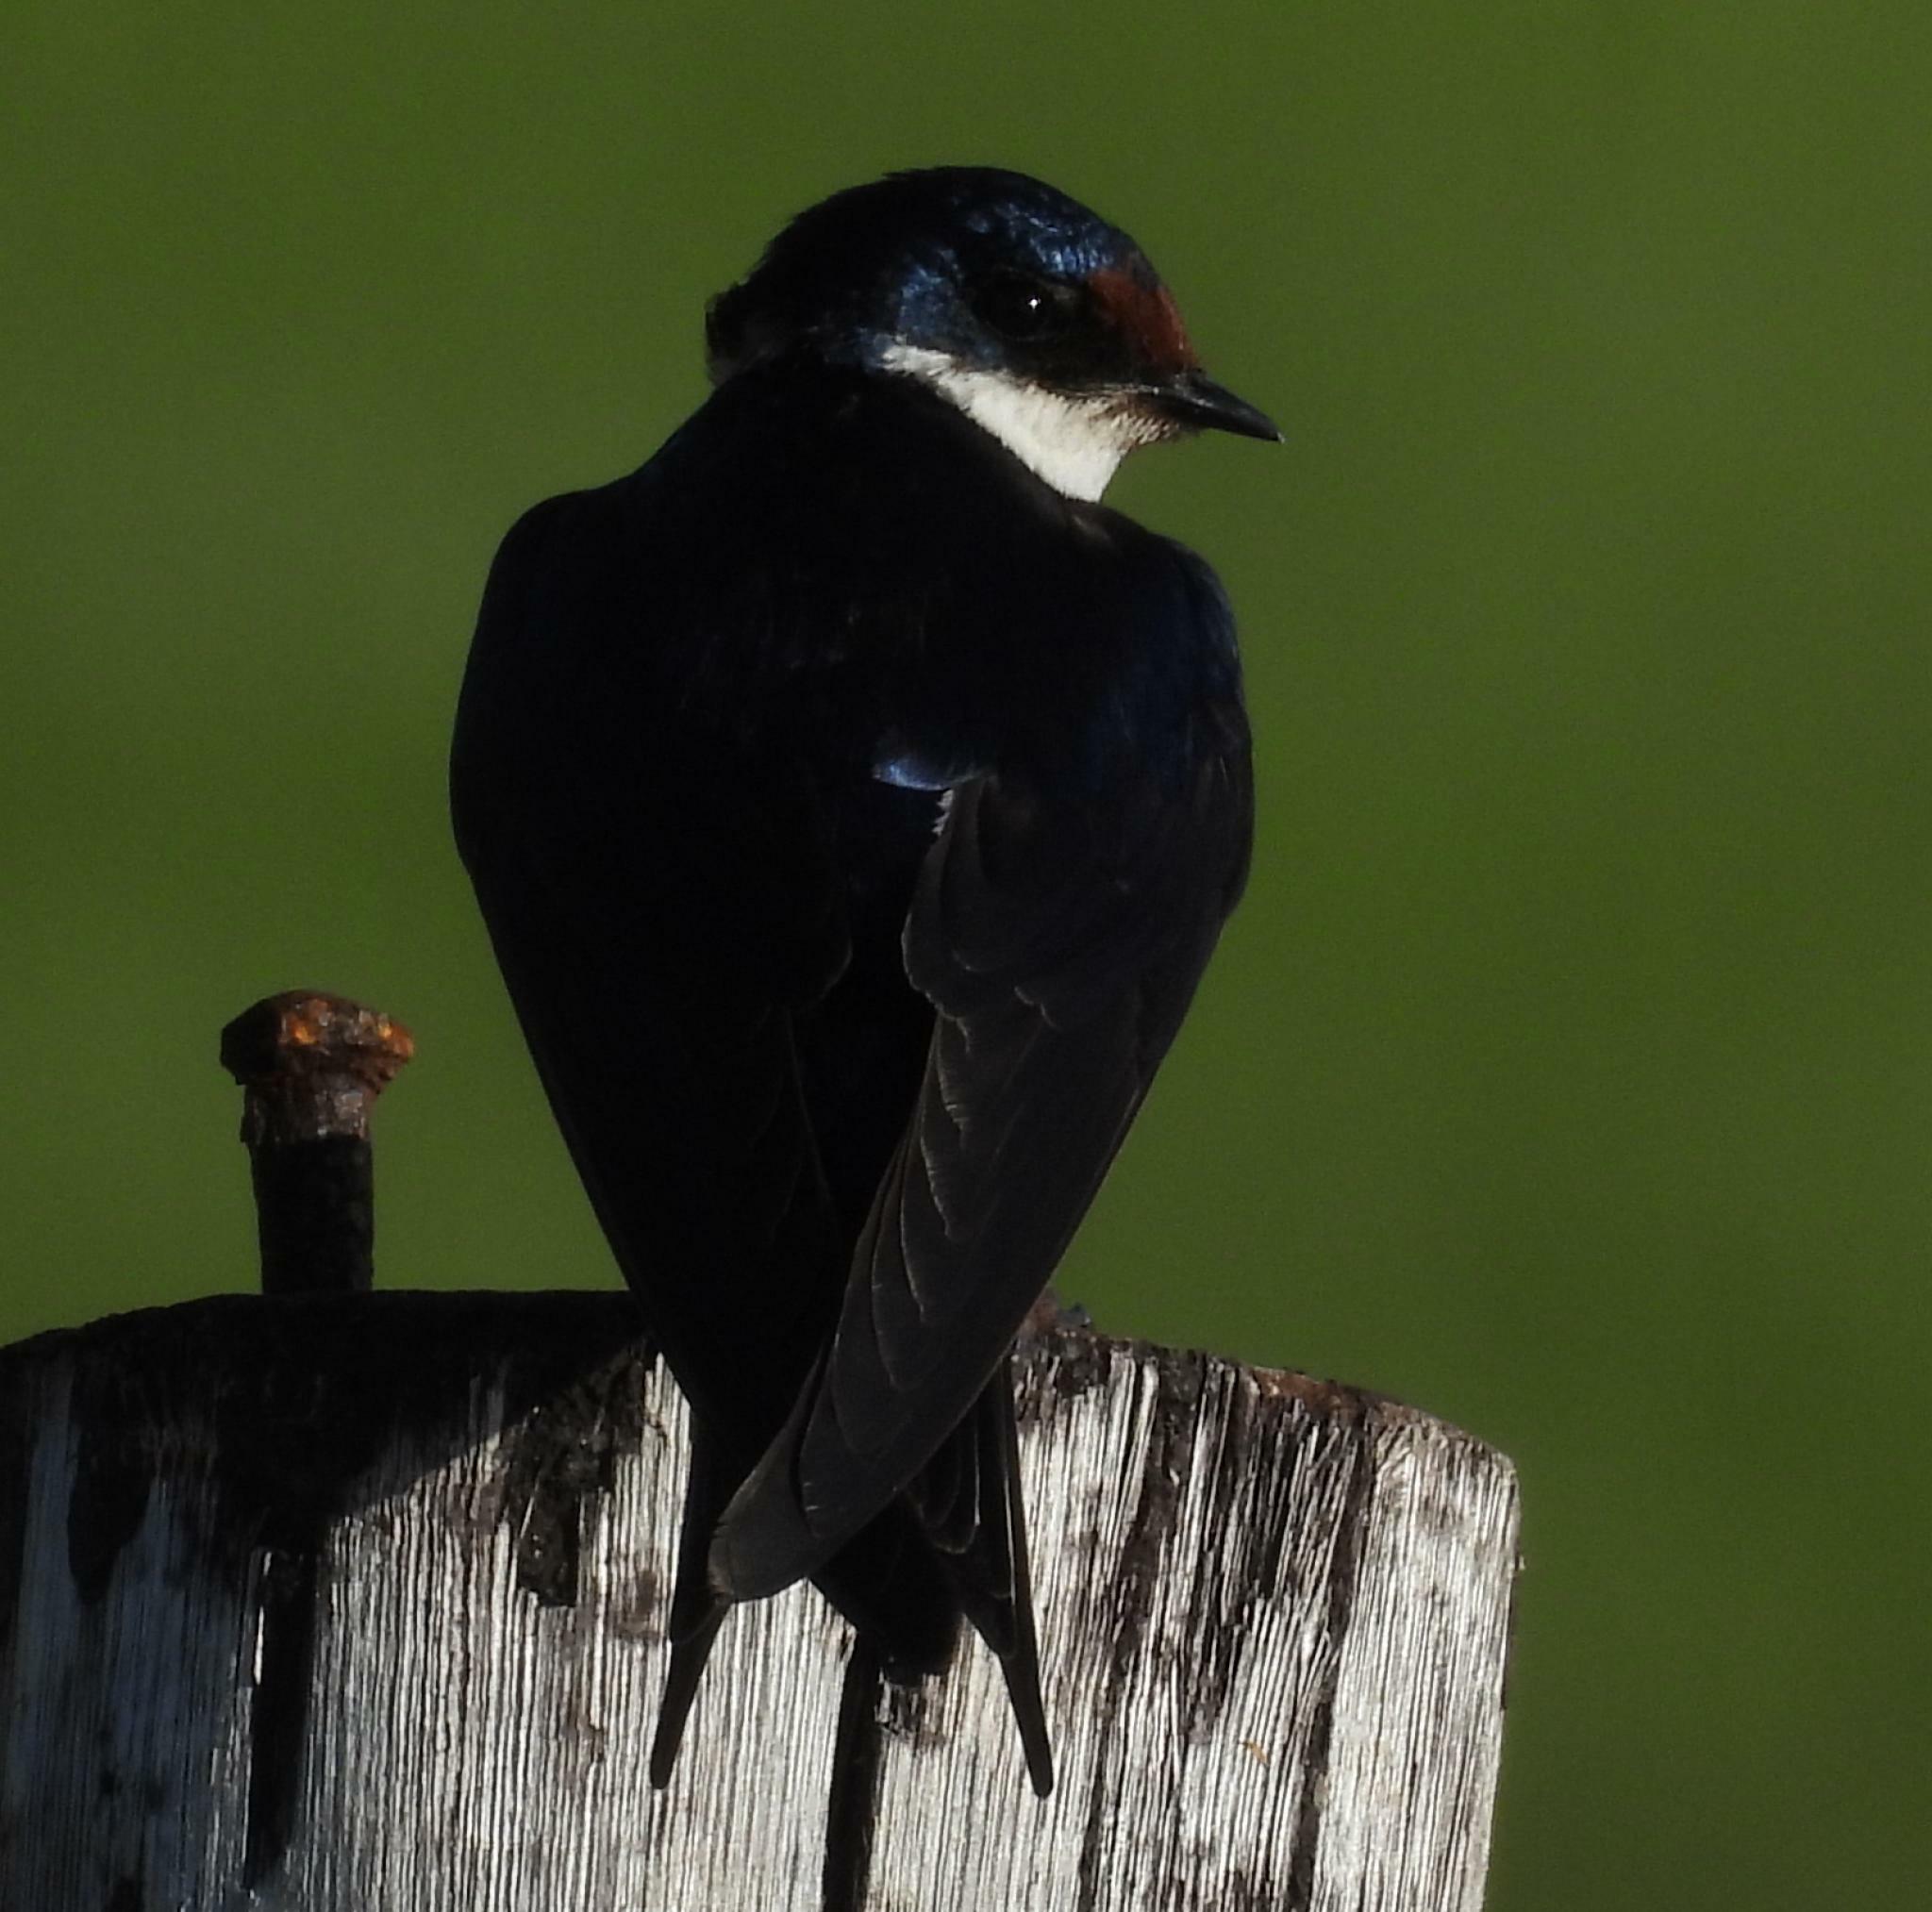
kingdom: Animalia
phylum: Chordata
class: Aves
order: Passeriformes
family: Hirundinidae
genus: Hirundo
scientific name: Hirundo albigularis
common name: White-throated swallow
